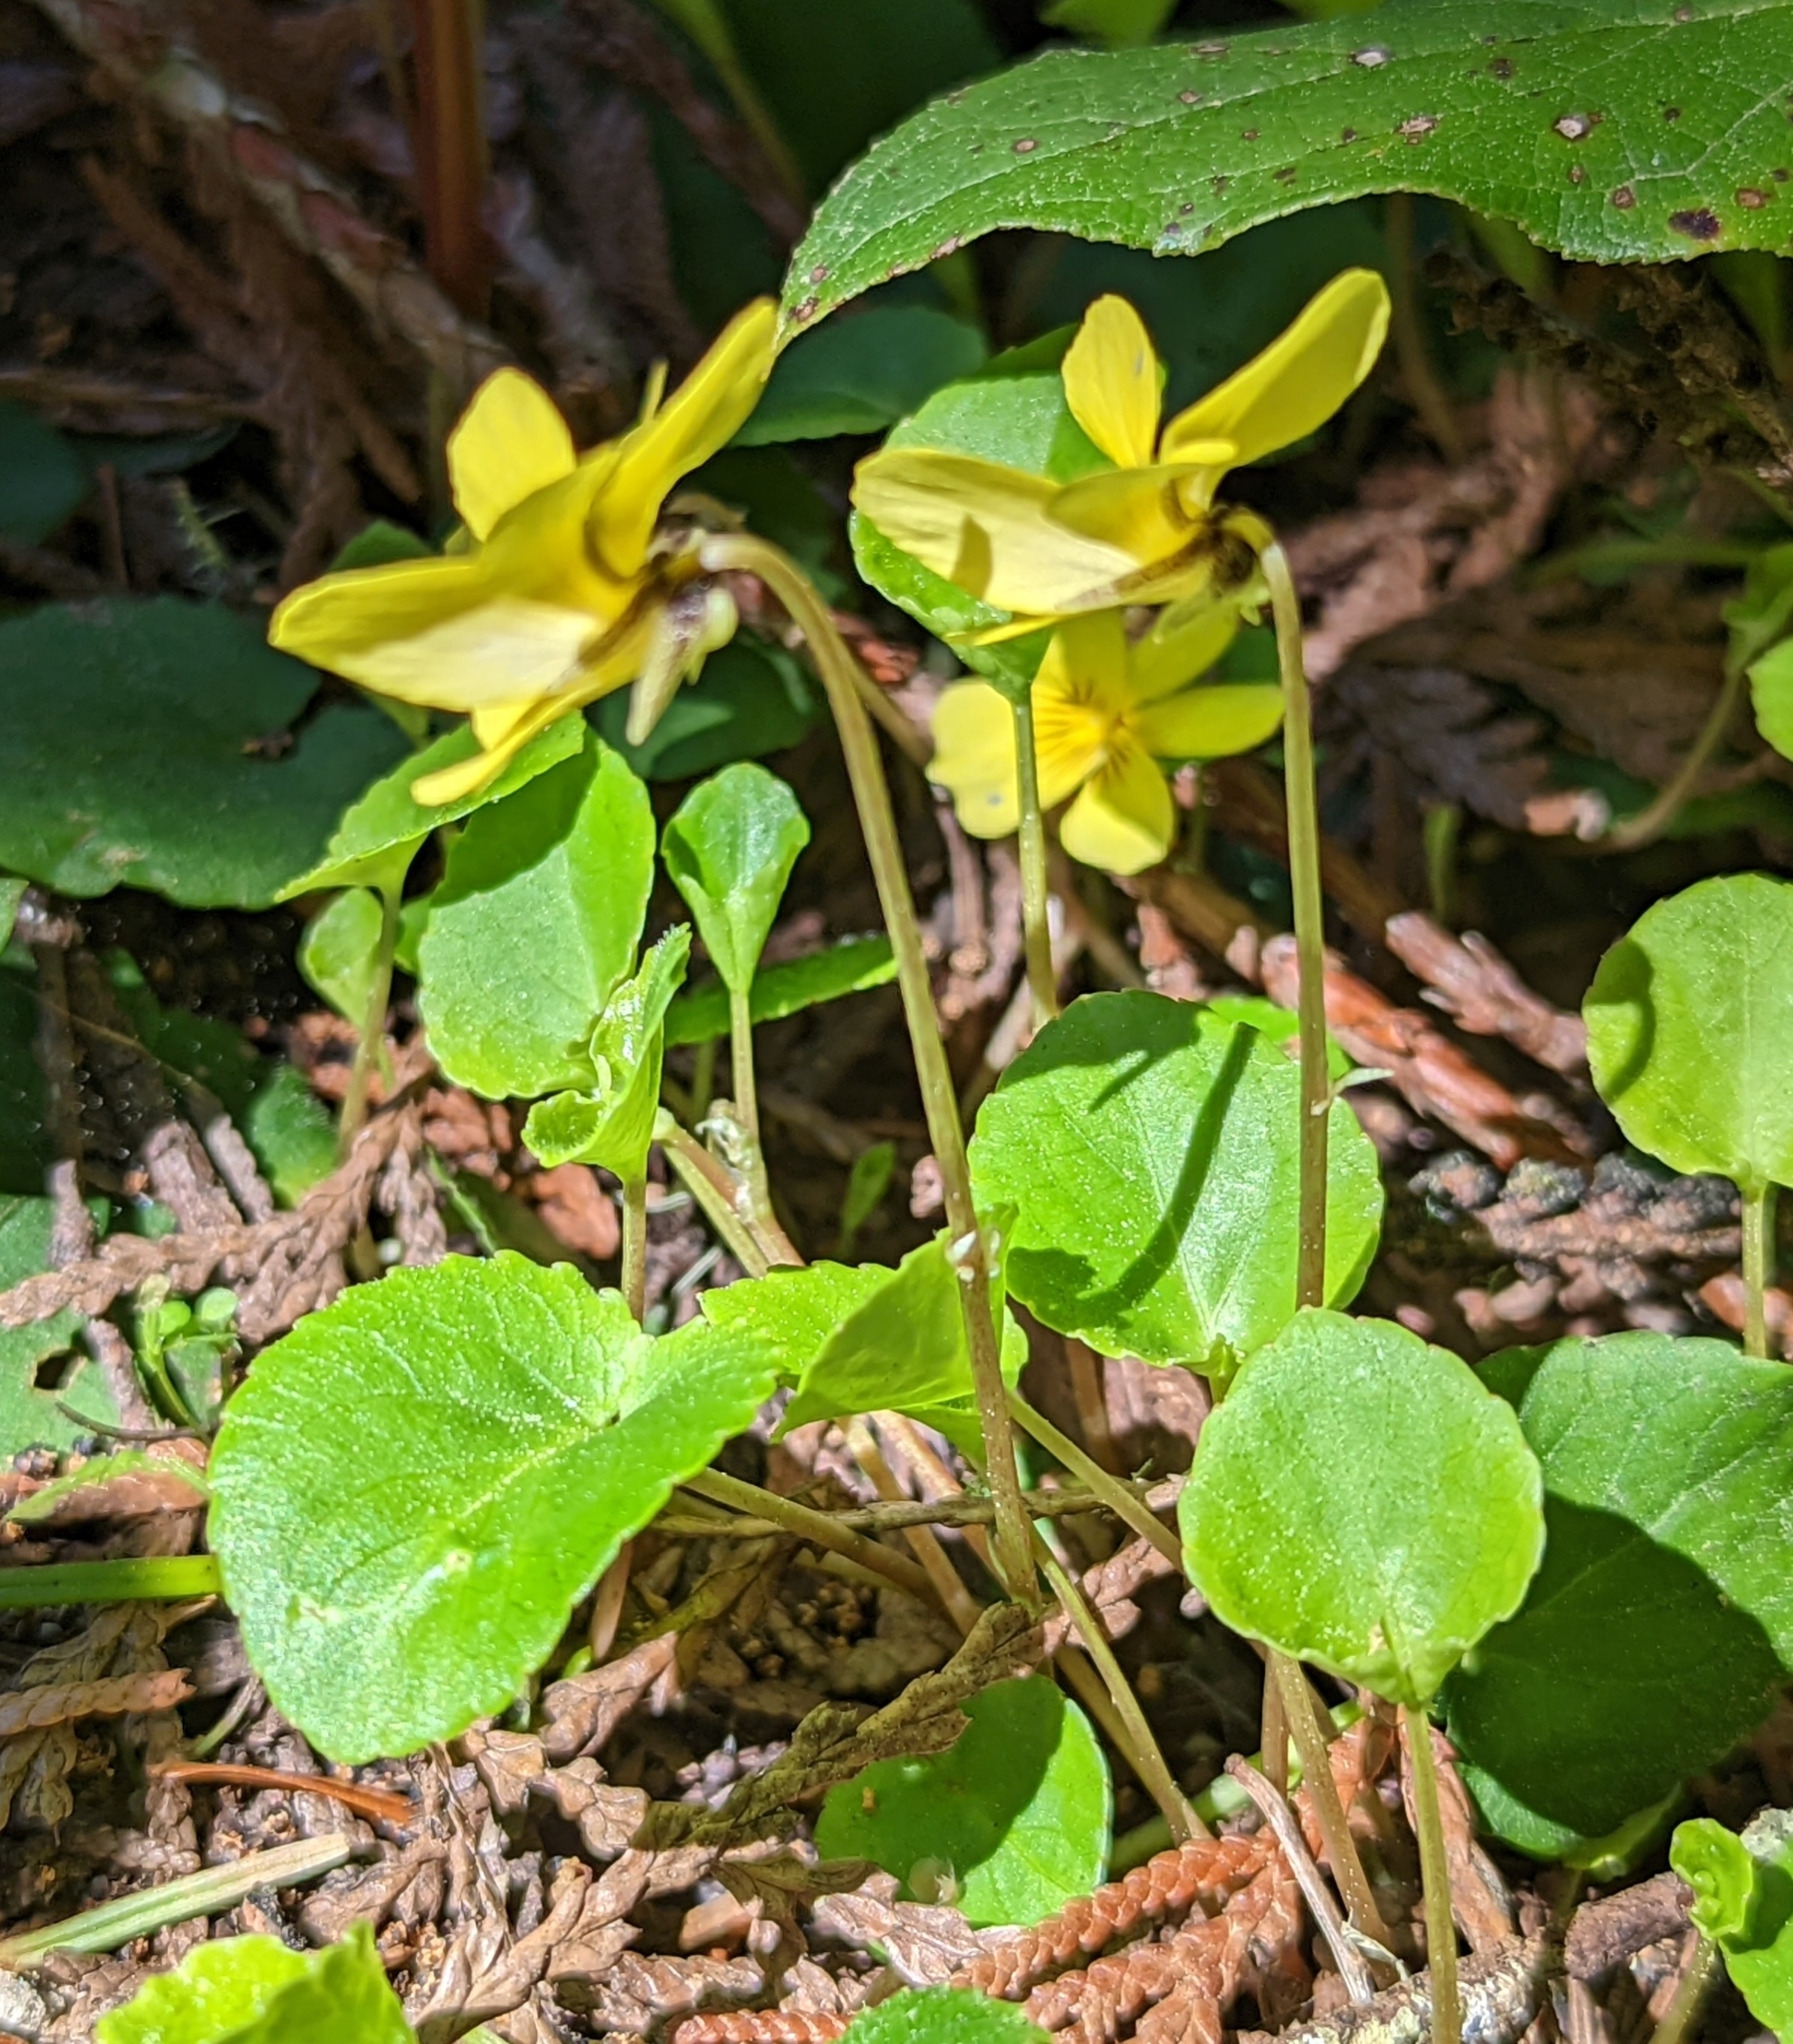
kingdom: Plantae
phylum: Tracheophyta
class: Magnoliopsida
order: Malpighiales
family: Violaceae
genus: Viola
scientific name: Viola sempervirens
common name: Evergreen violet
